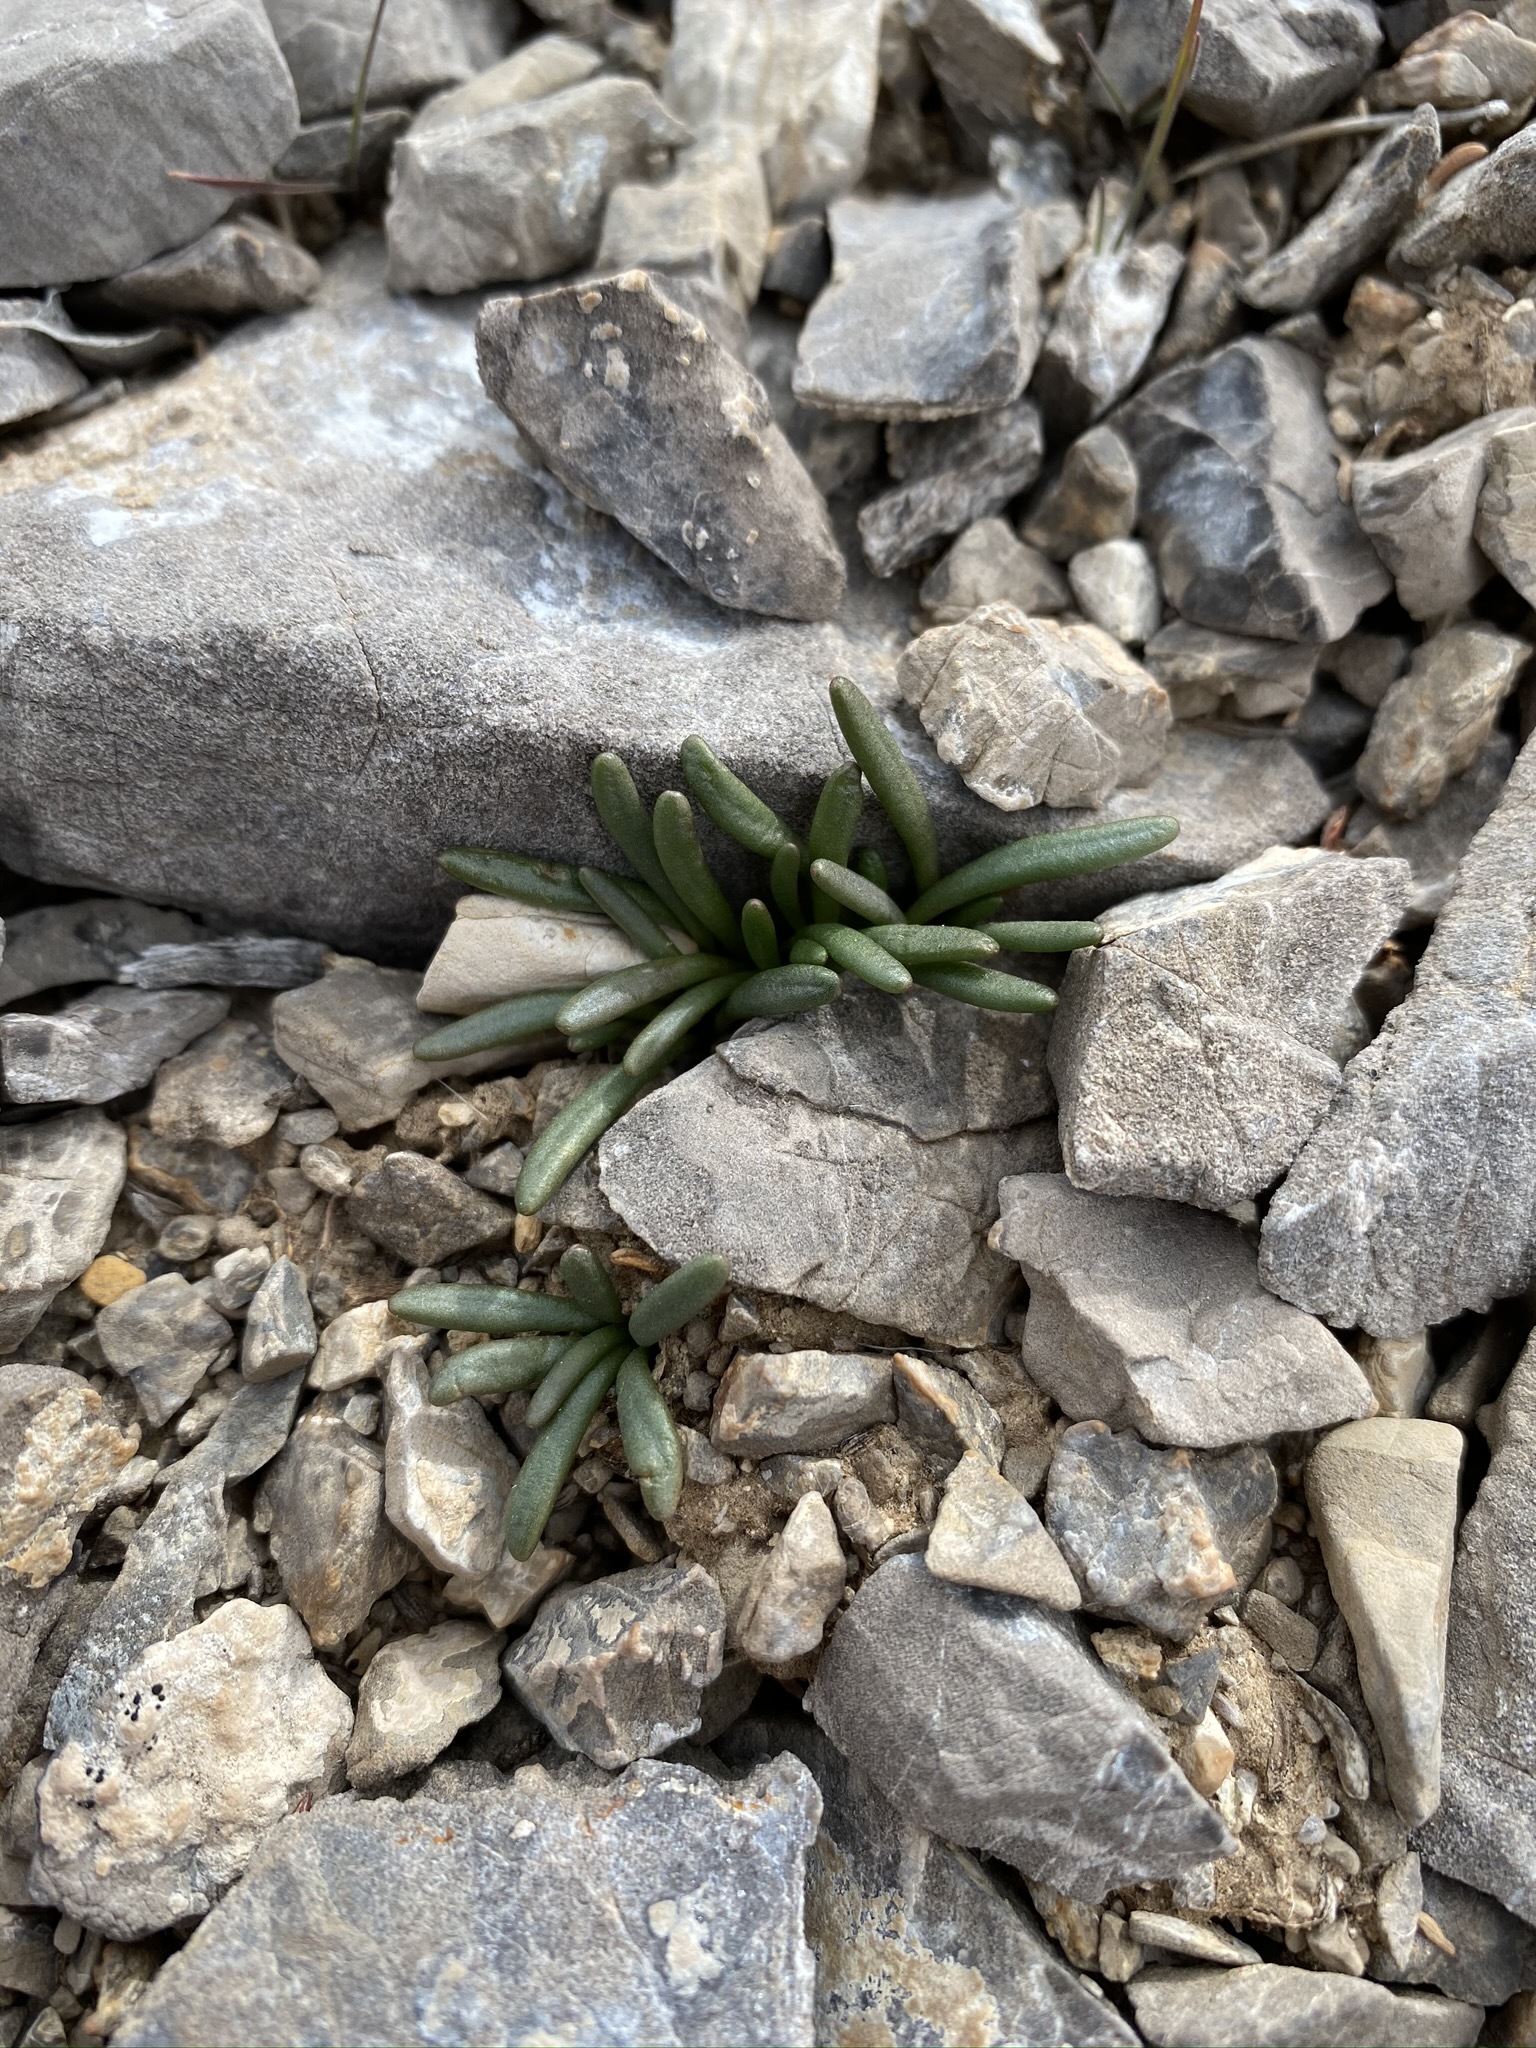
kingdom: Plantae
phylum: Tracheophyta
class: Magnoliopsida
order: Caryophyllales
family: Montiaceae
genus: Lewisia
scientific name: Lewisia maguirei
